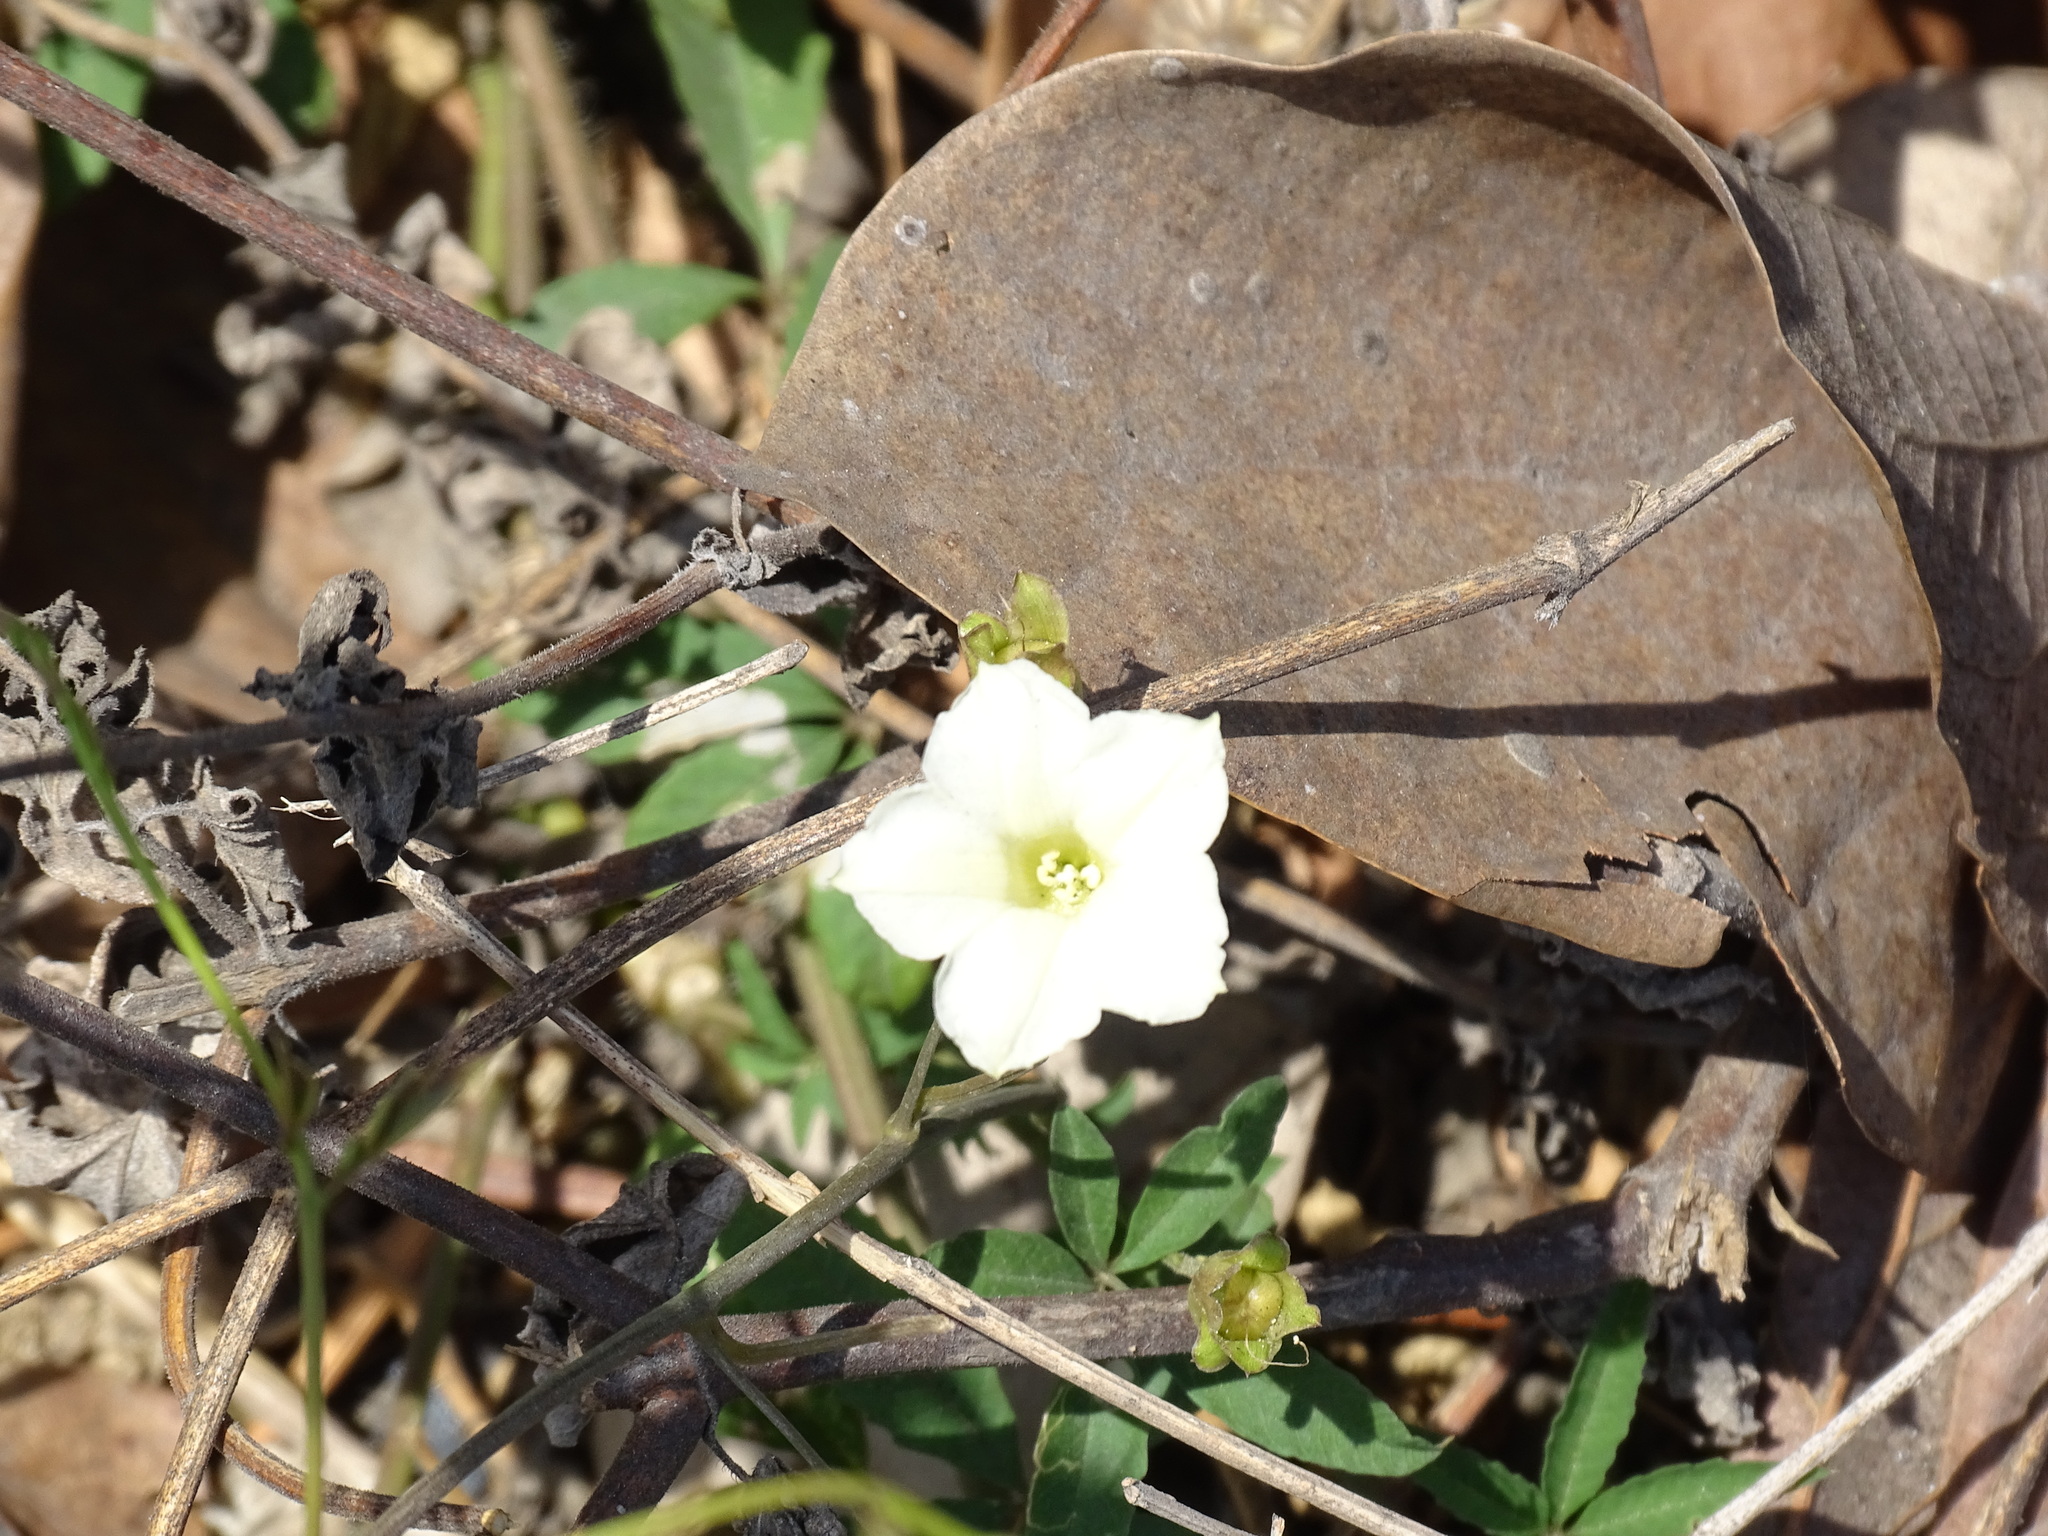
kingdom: Plantae
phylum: Tracheophyta
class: Magnoliopsida
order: Solanales
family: Convolvulaceae
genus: Distimake
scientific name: Distimake quinquefolius
